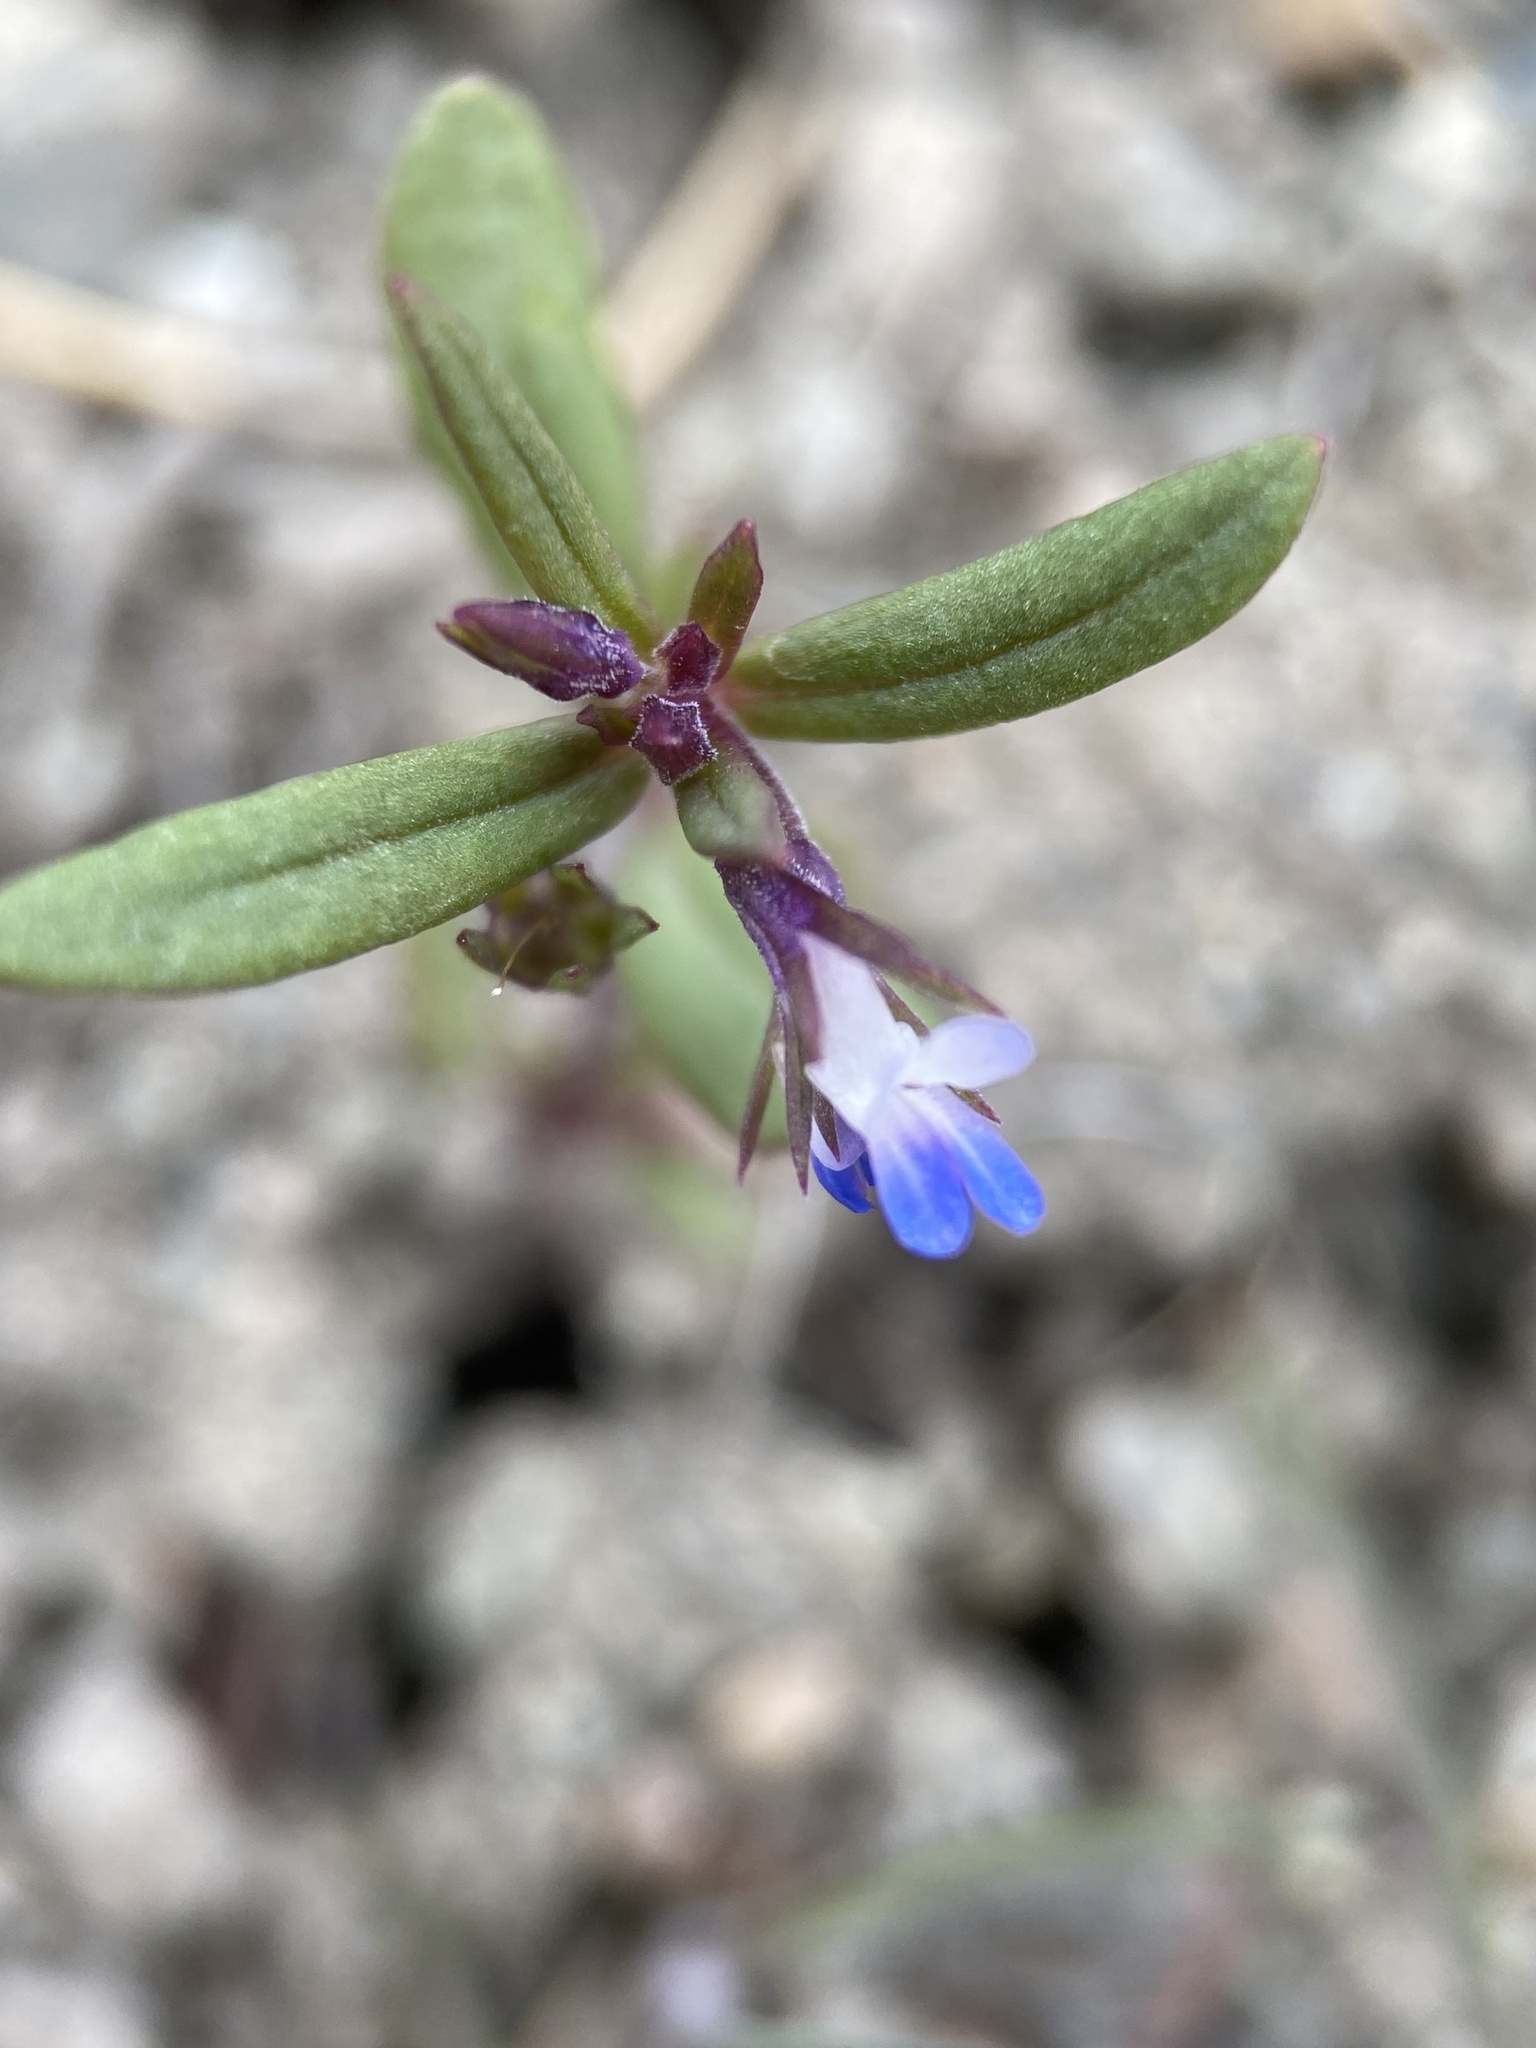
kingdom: Plantae
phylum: Tracheophyta
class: Magnoliopsida
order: Lamiales
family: Plantaginaceae
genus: Collinsia
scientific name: Collinsia parviflora
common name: Blue-lips
